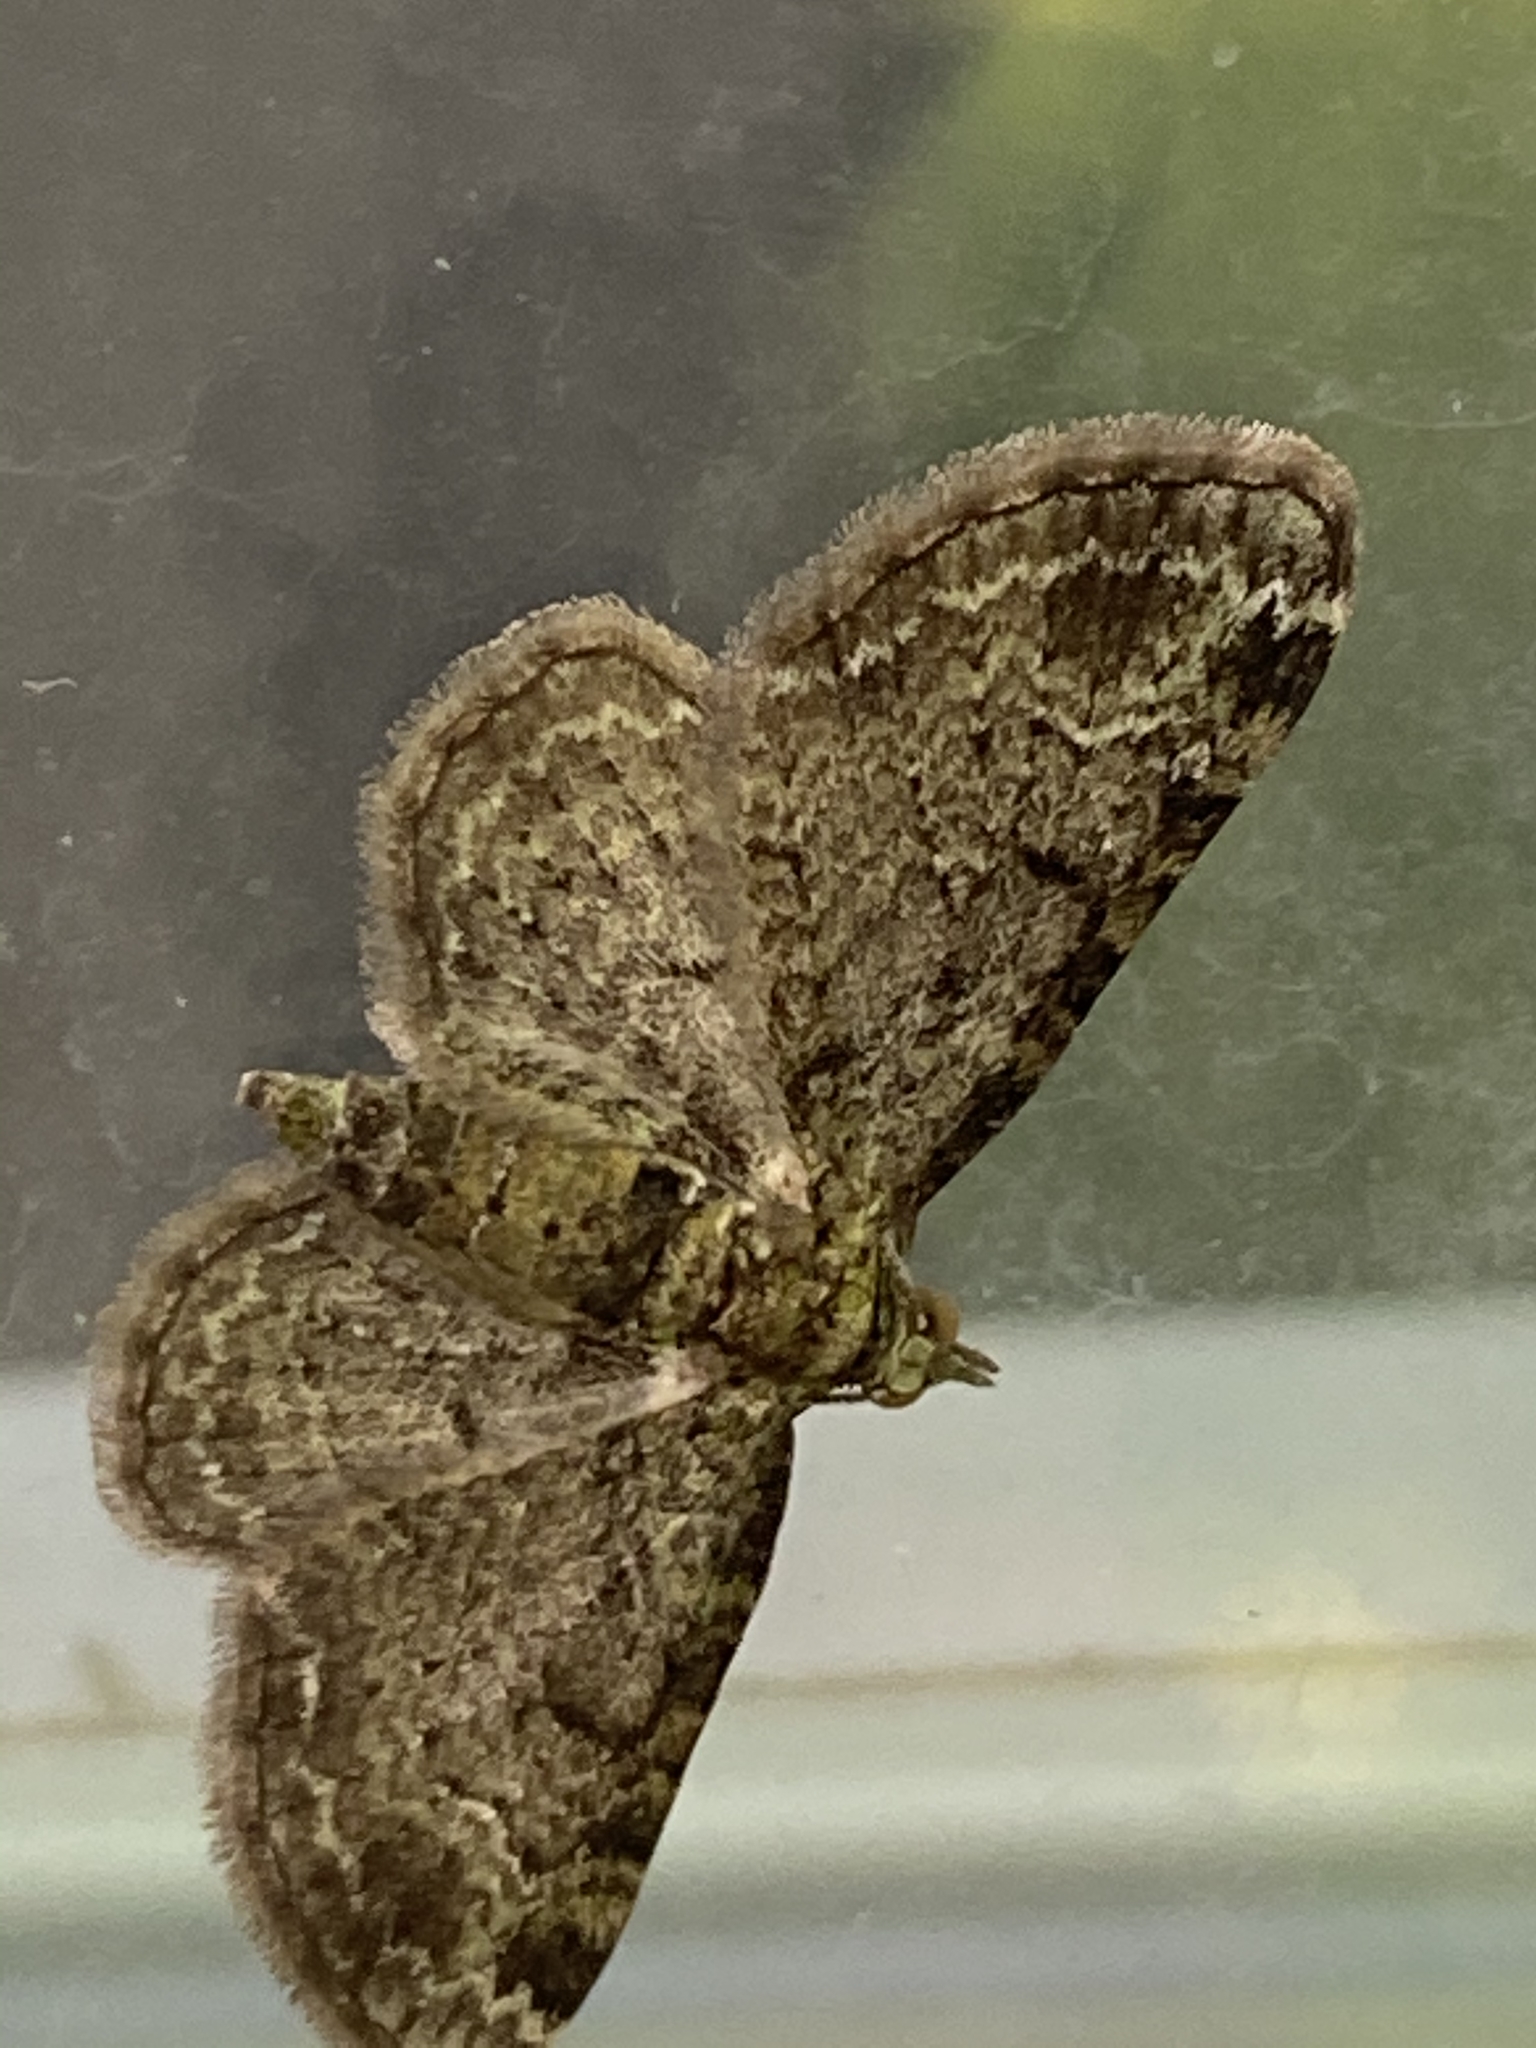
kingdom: Animalia
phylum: Arthropoda
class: Insecta
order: Lepidoptera
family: Geometridae
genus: Pasiphila
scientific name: Pasiphila rectangulata
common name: Green pug
